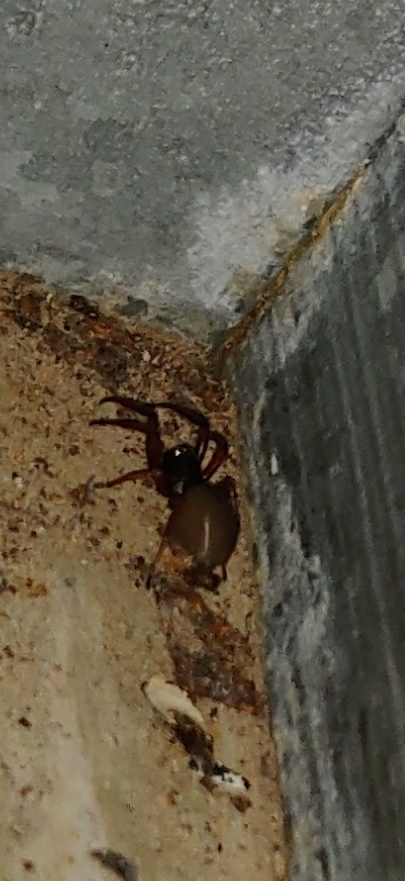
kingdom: Animalia
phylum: Arthropoda
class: Arachnida
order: Araneae
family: Trachelidae
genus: Trachelas
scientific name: Trachelas tranquillus
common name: Broad-faced sac spider
